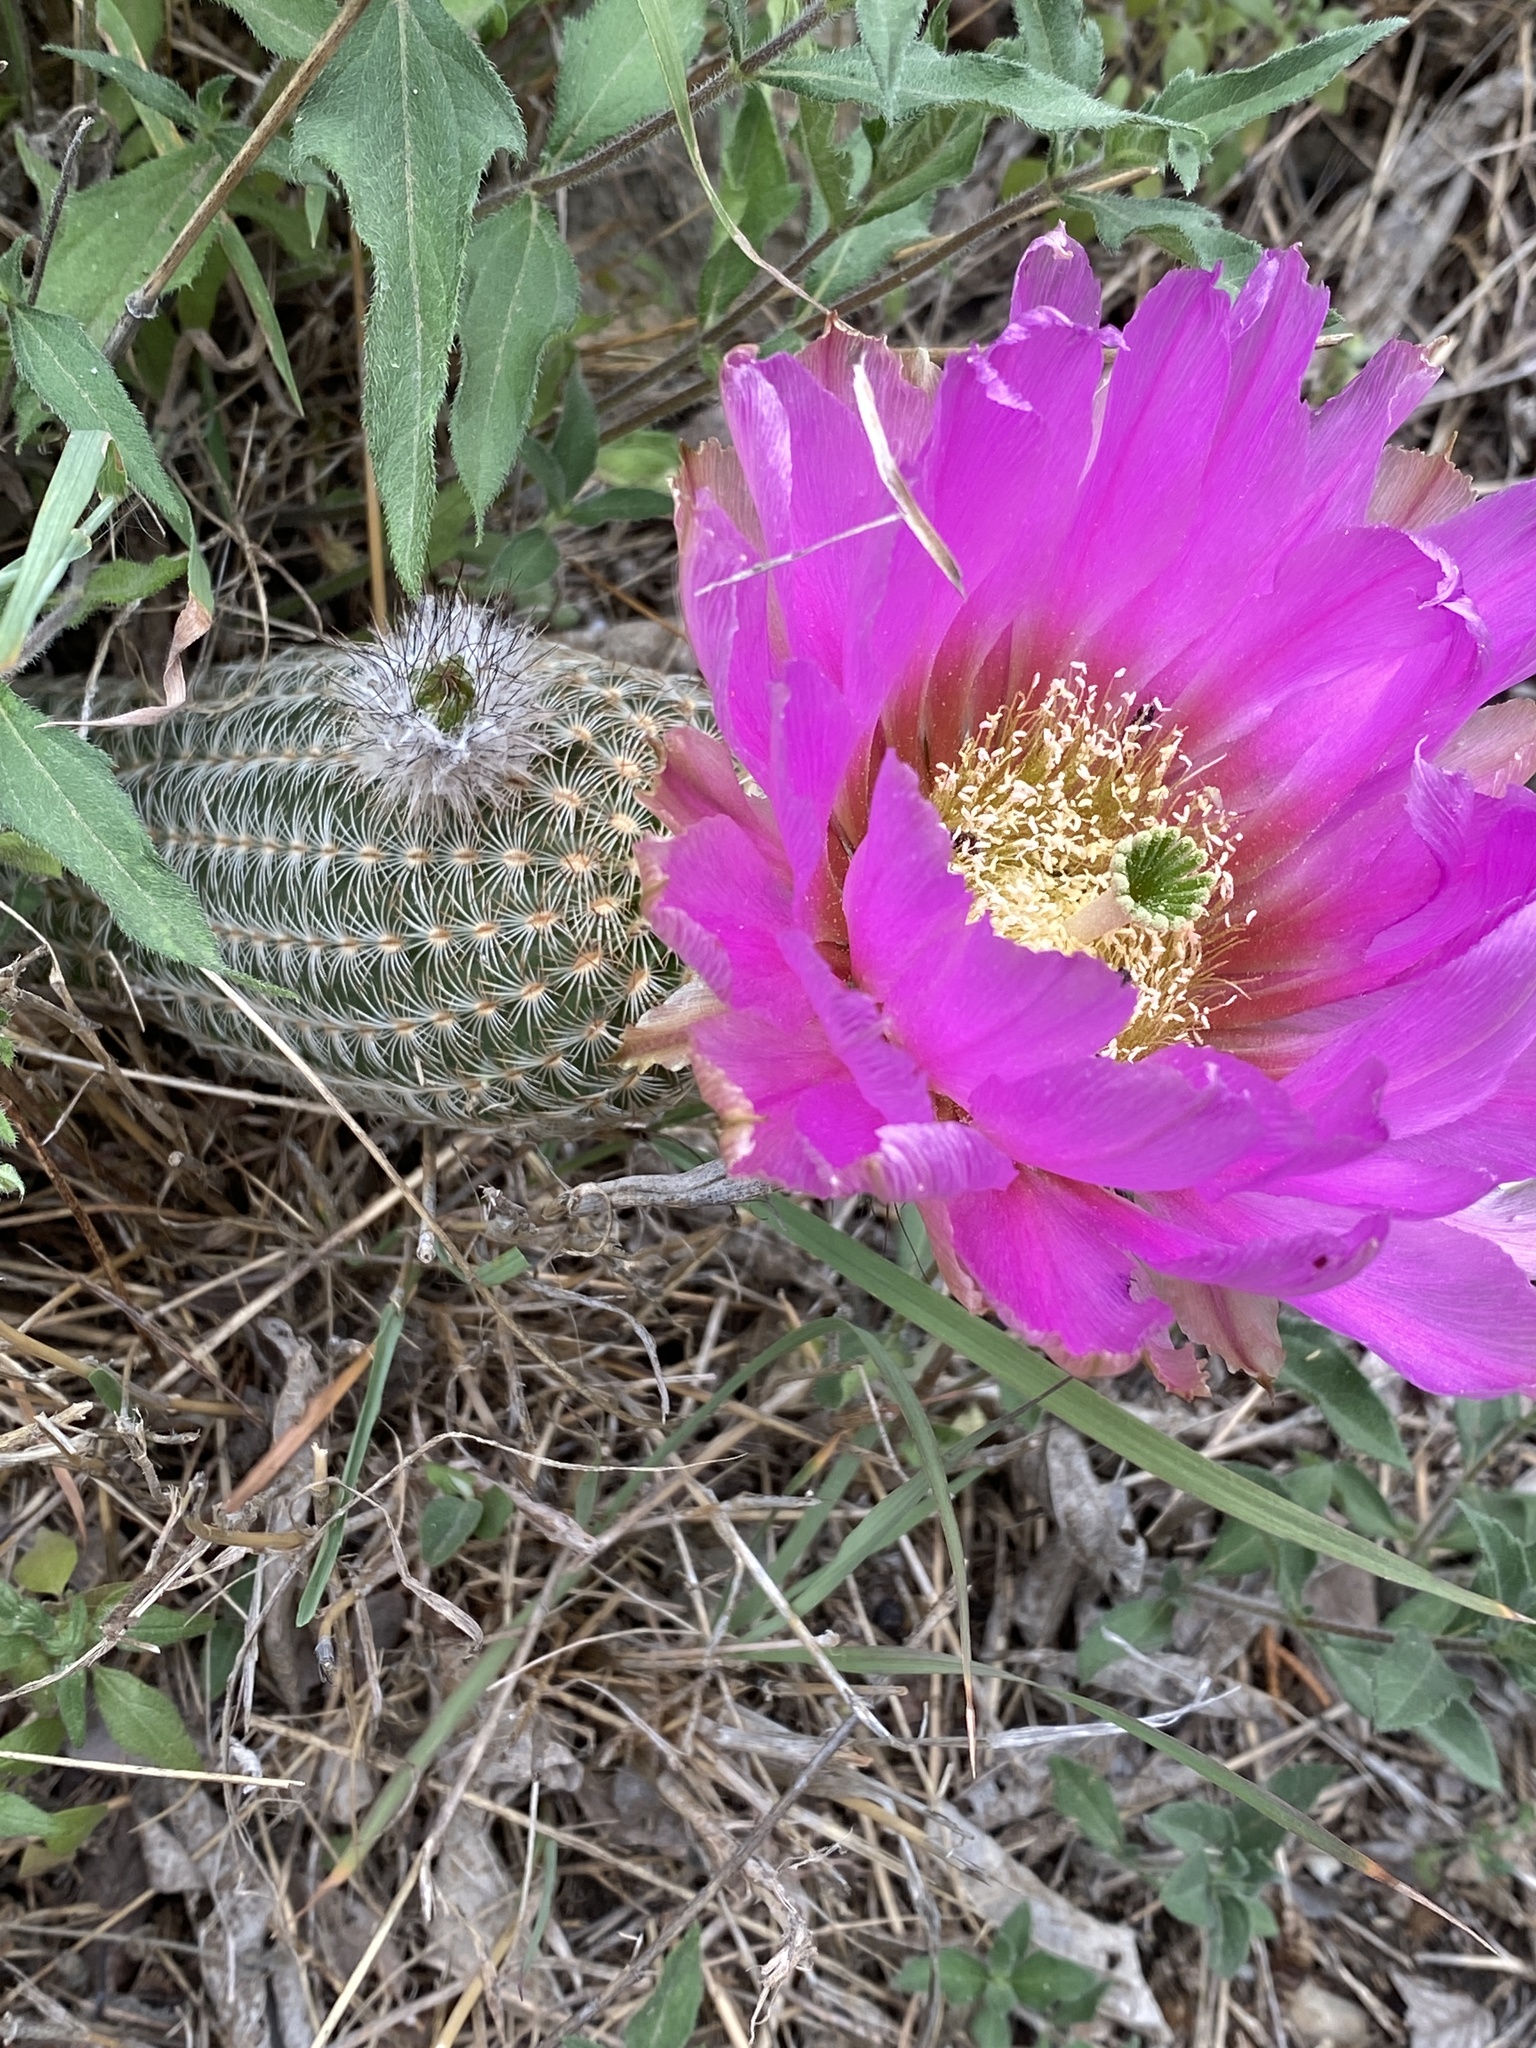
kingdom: Plantae
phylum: Tracheophyta
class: Magnoliopsida
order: Caryophyllales
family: Cactaceae
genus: Echinocereus
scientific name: Echinocereus reichenbachii
